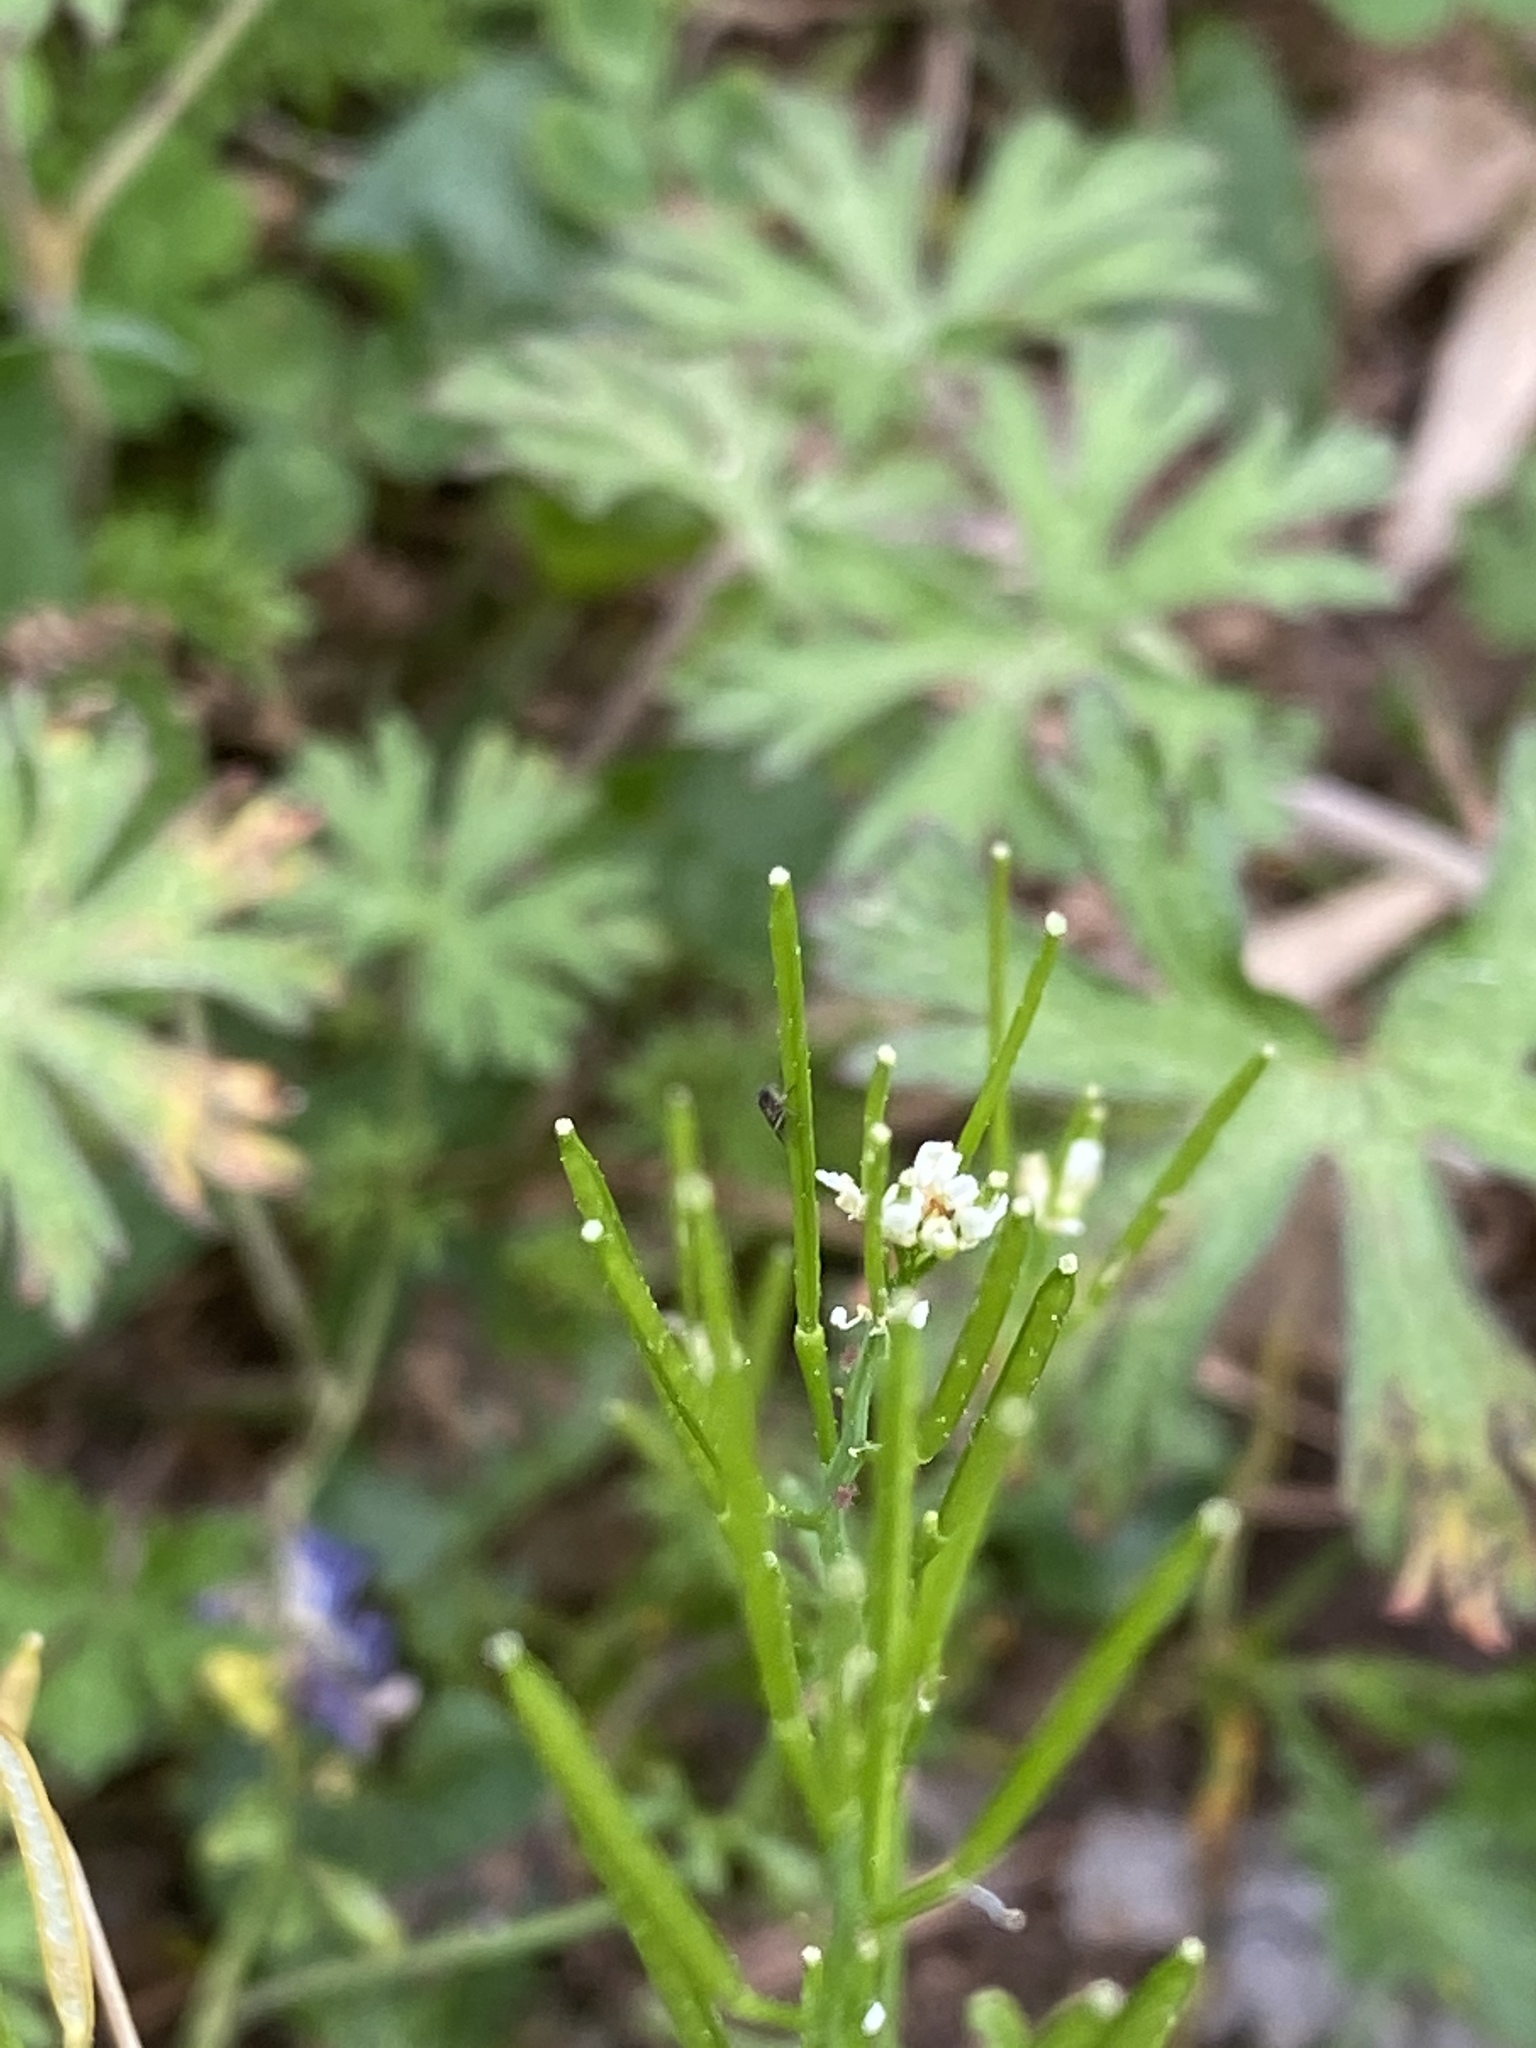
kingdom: Plantae
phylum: Tracheophyta
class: Magnoliopsida
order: Brassicales
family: Brassicaceae
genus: Cardamine
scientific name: Cardamine hirsuta
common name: Hairy bittercress
